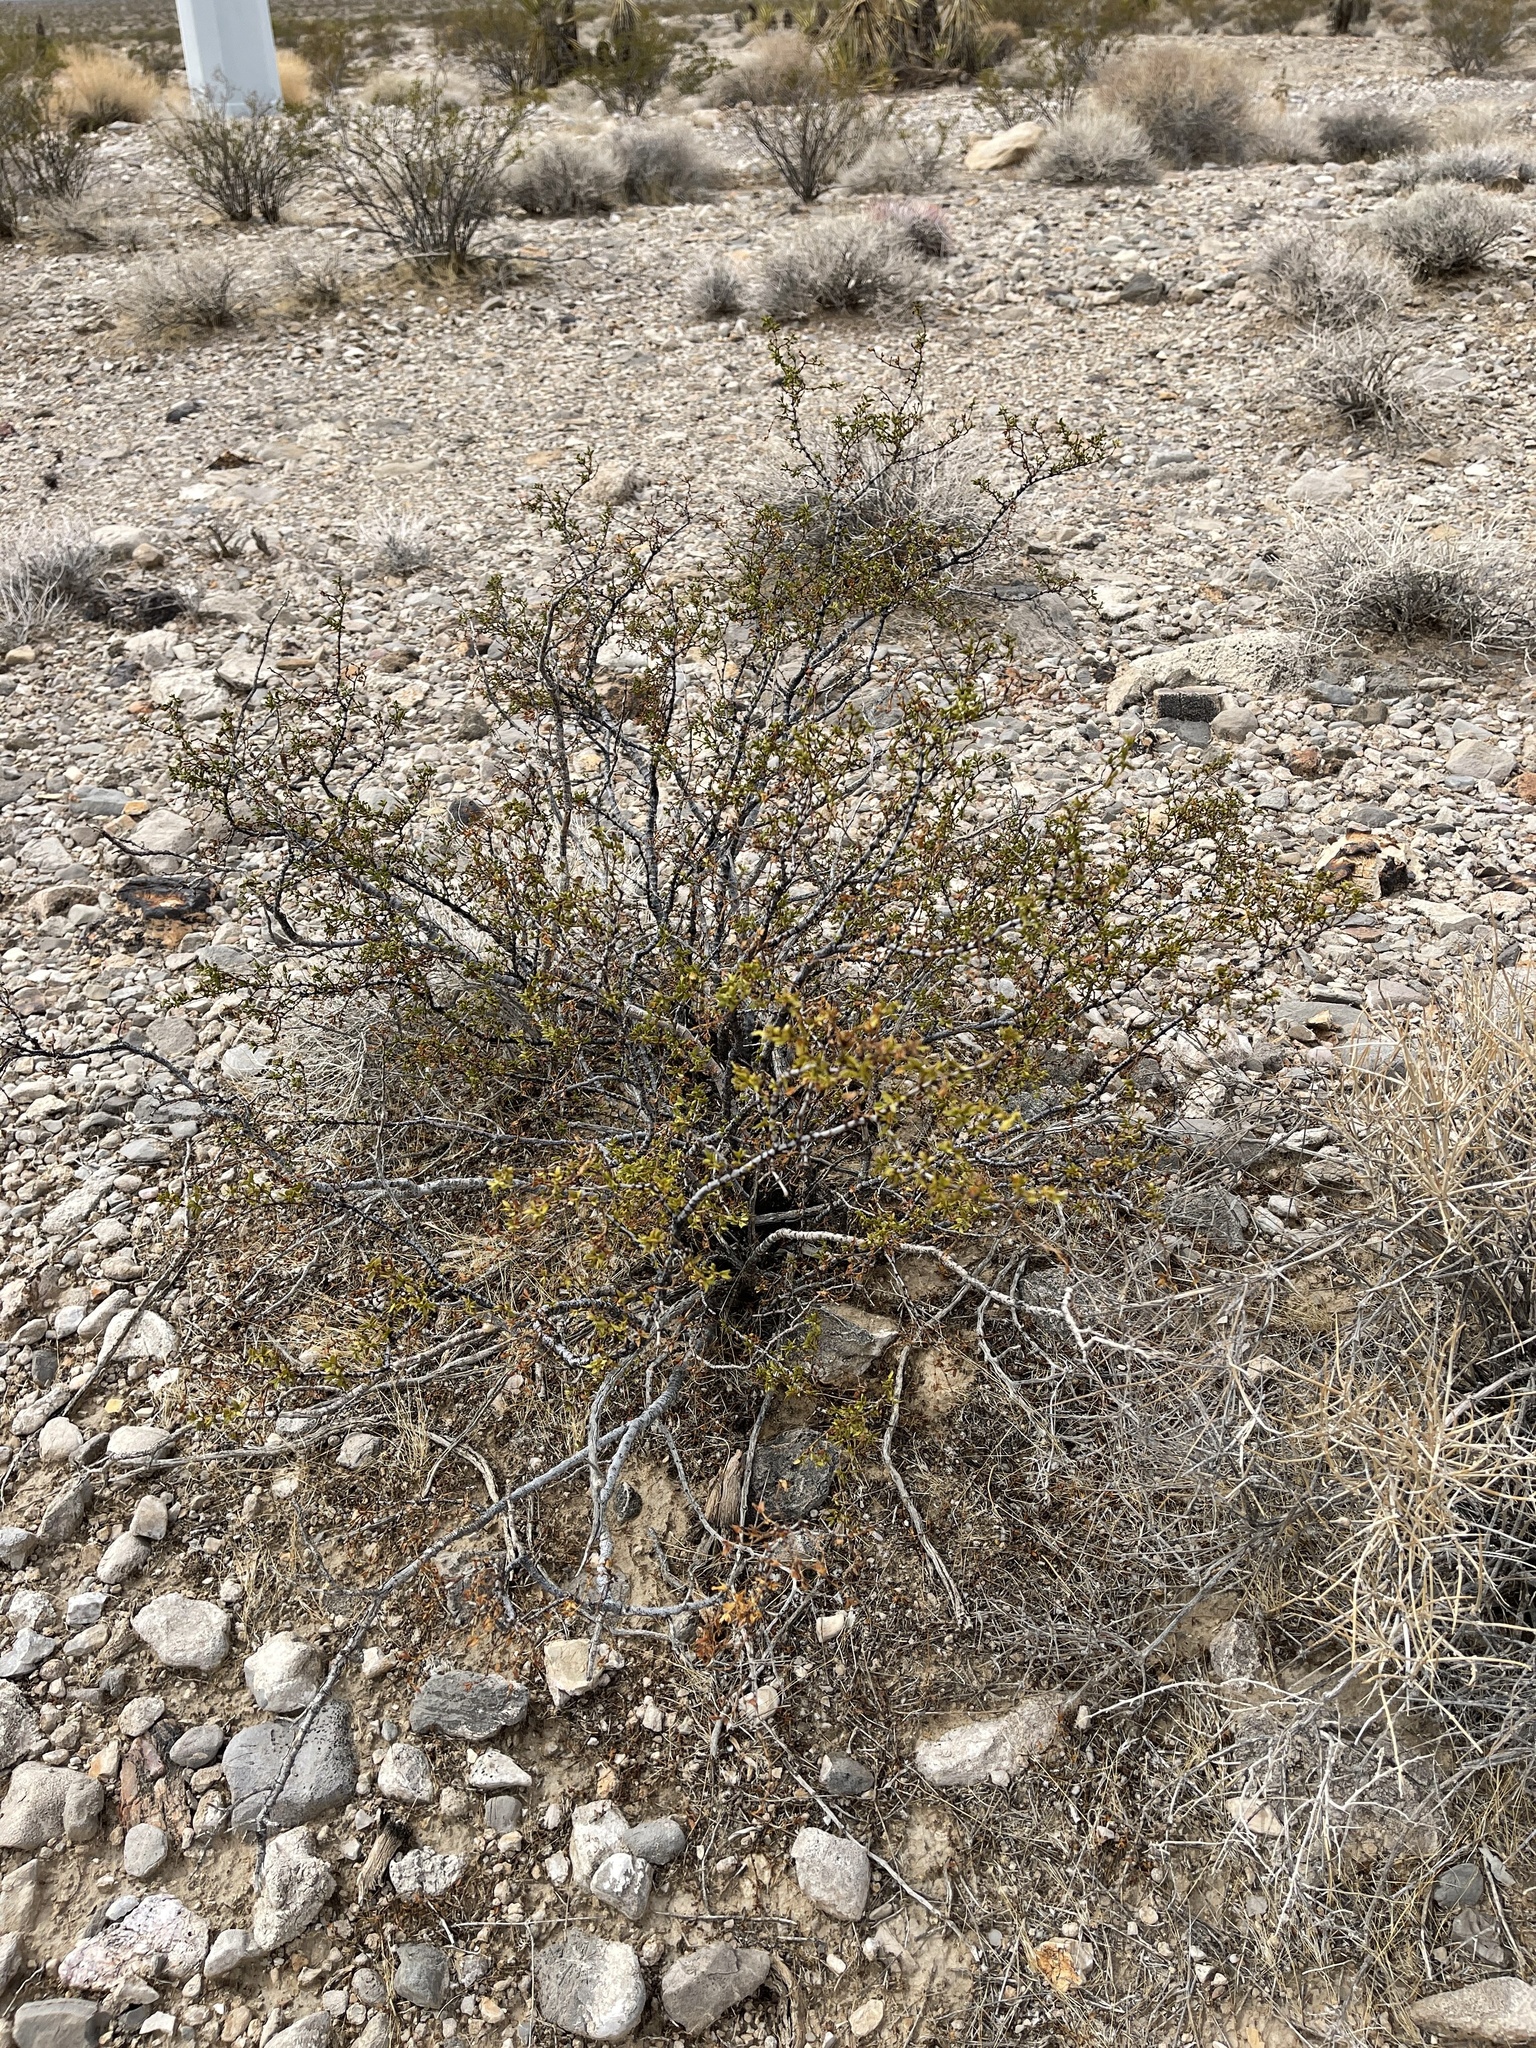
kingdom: Plantae
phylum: Tracheophyta
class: Magnoliopsida
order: Zygophyllales
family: Zygophyllaceae
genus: Larrea
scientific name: Larrea tridentata
